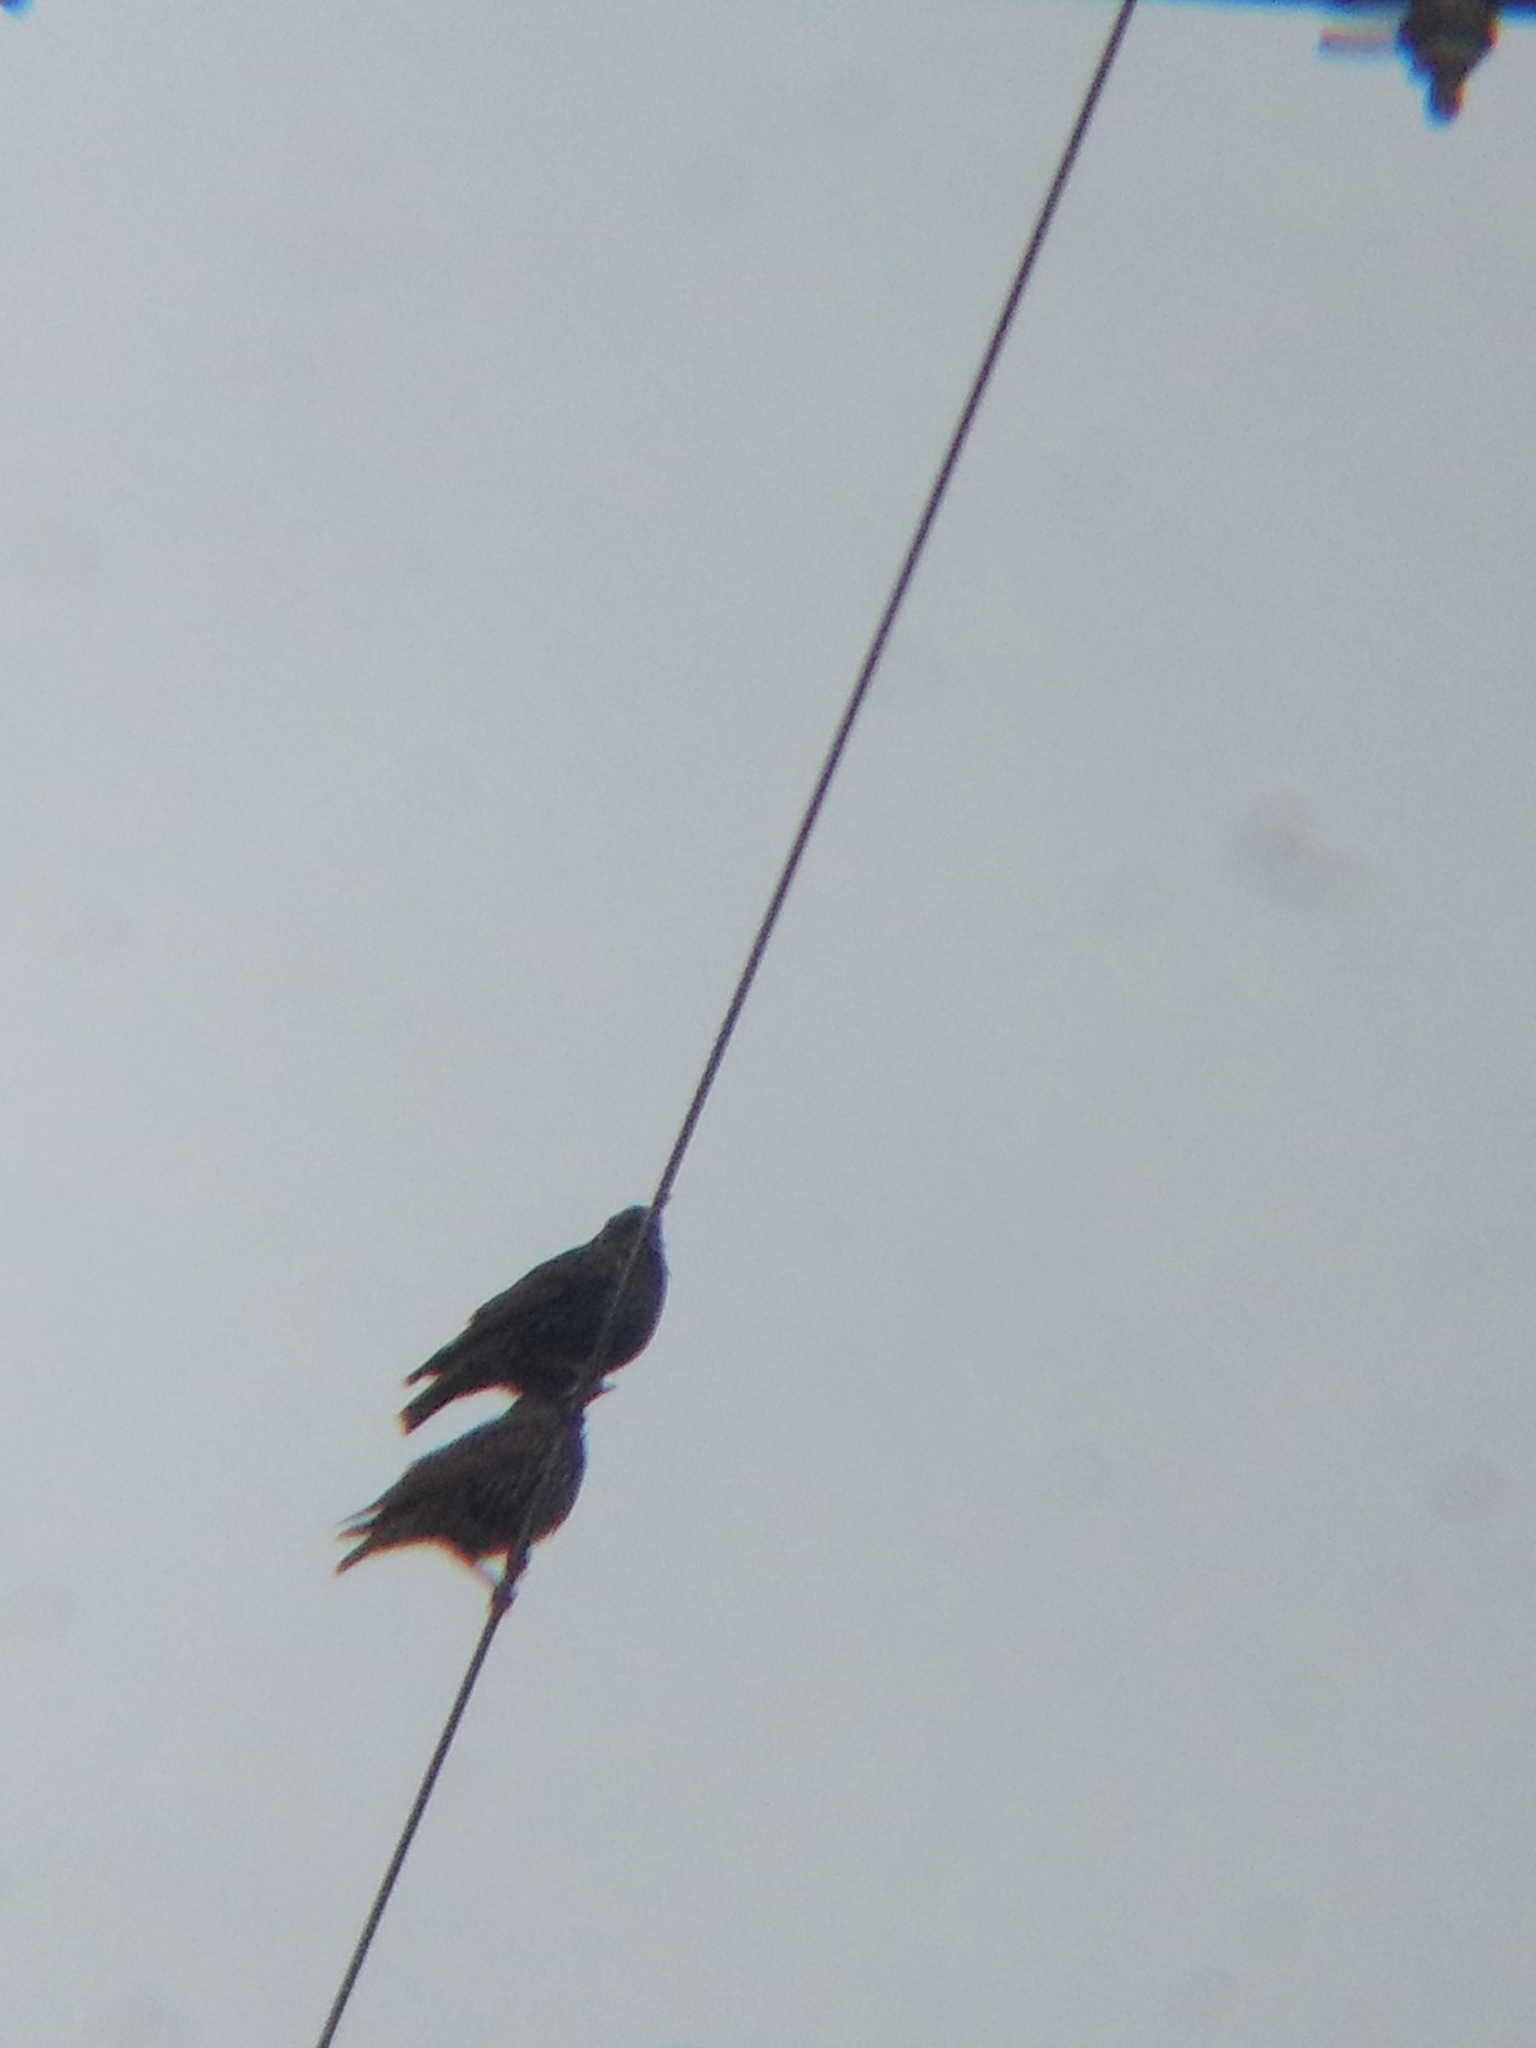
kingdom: Animalia
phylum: Chordata
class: Aves
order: Passeriformes
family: Sturnidae
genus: Sturnus
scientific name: Sturnus vulgaris
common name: Common starling
